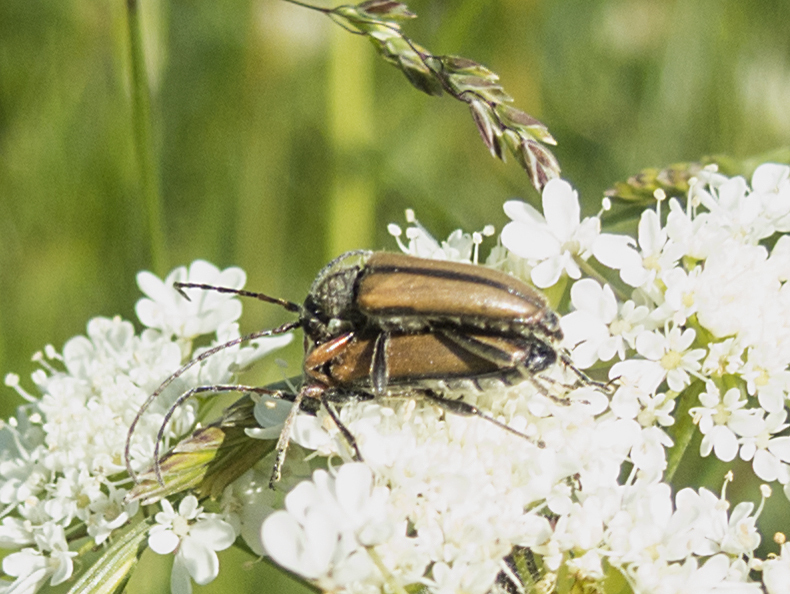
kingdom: Animalia
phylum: Arthropoda
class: Insecta
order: Coleoptera
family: Cerambycidae
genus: Cortodera
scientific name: Cortodera flavimana
